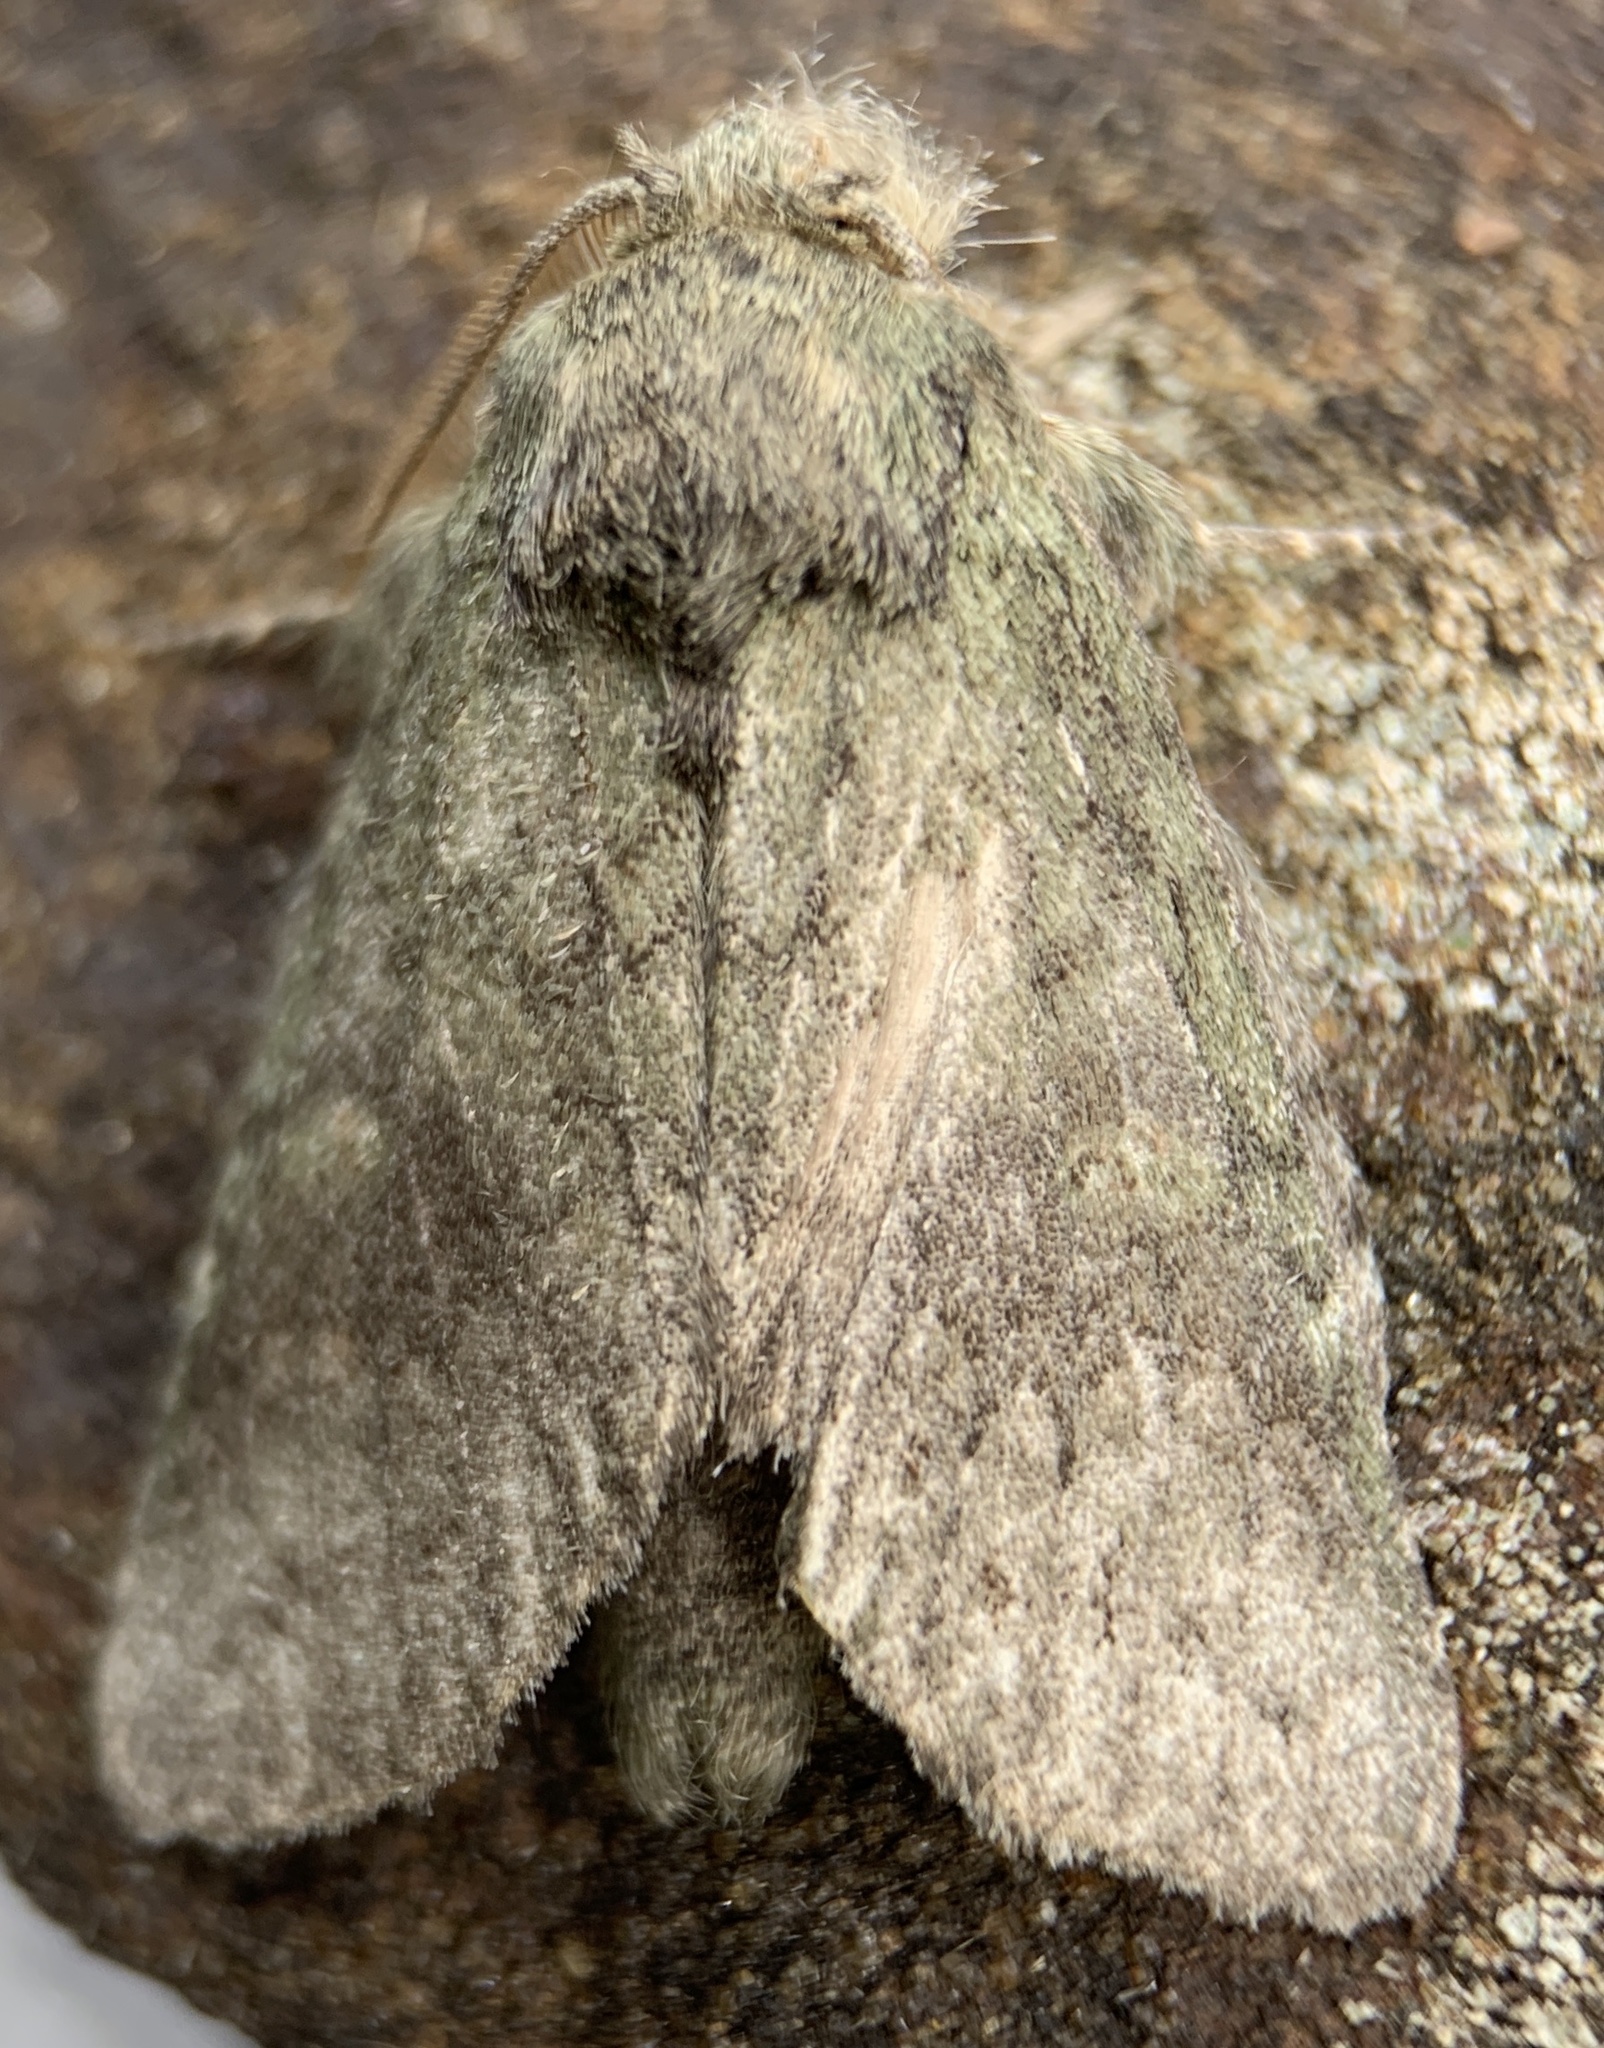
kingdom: Animalia
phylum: Arthropoda
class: Insecta
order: Lepidoptera
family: Notodontidae
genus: Disphragis
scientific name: Disphragis Cecrita guttivitta
